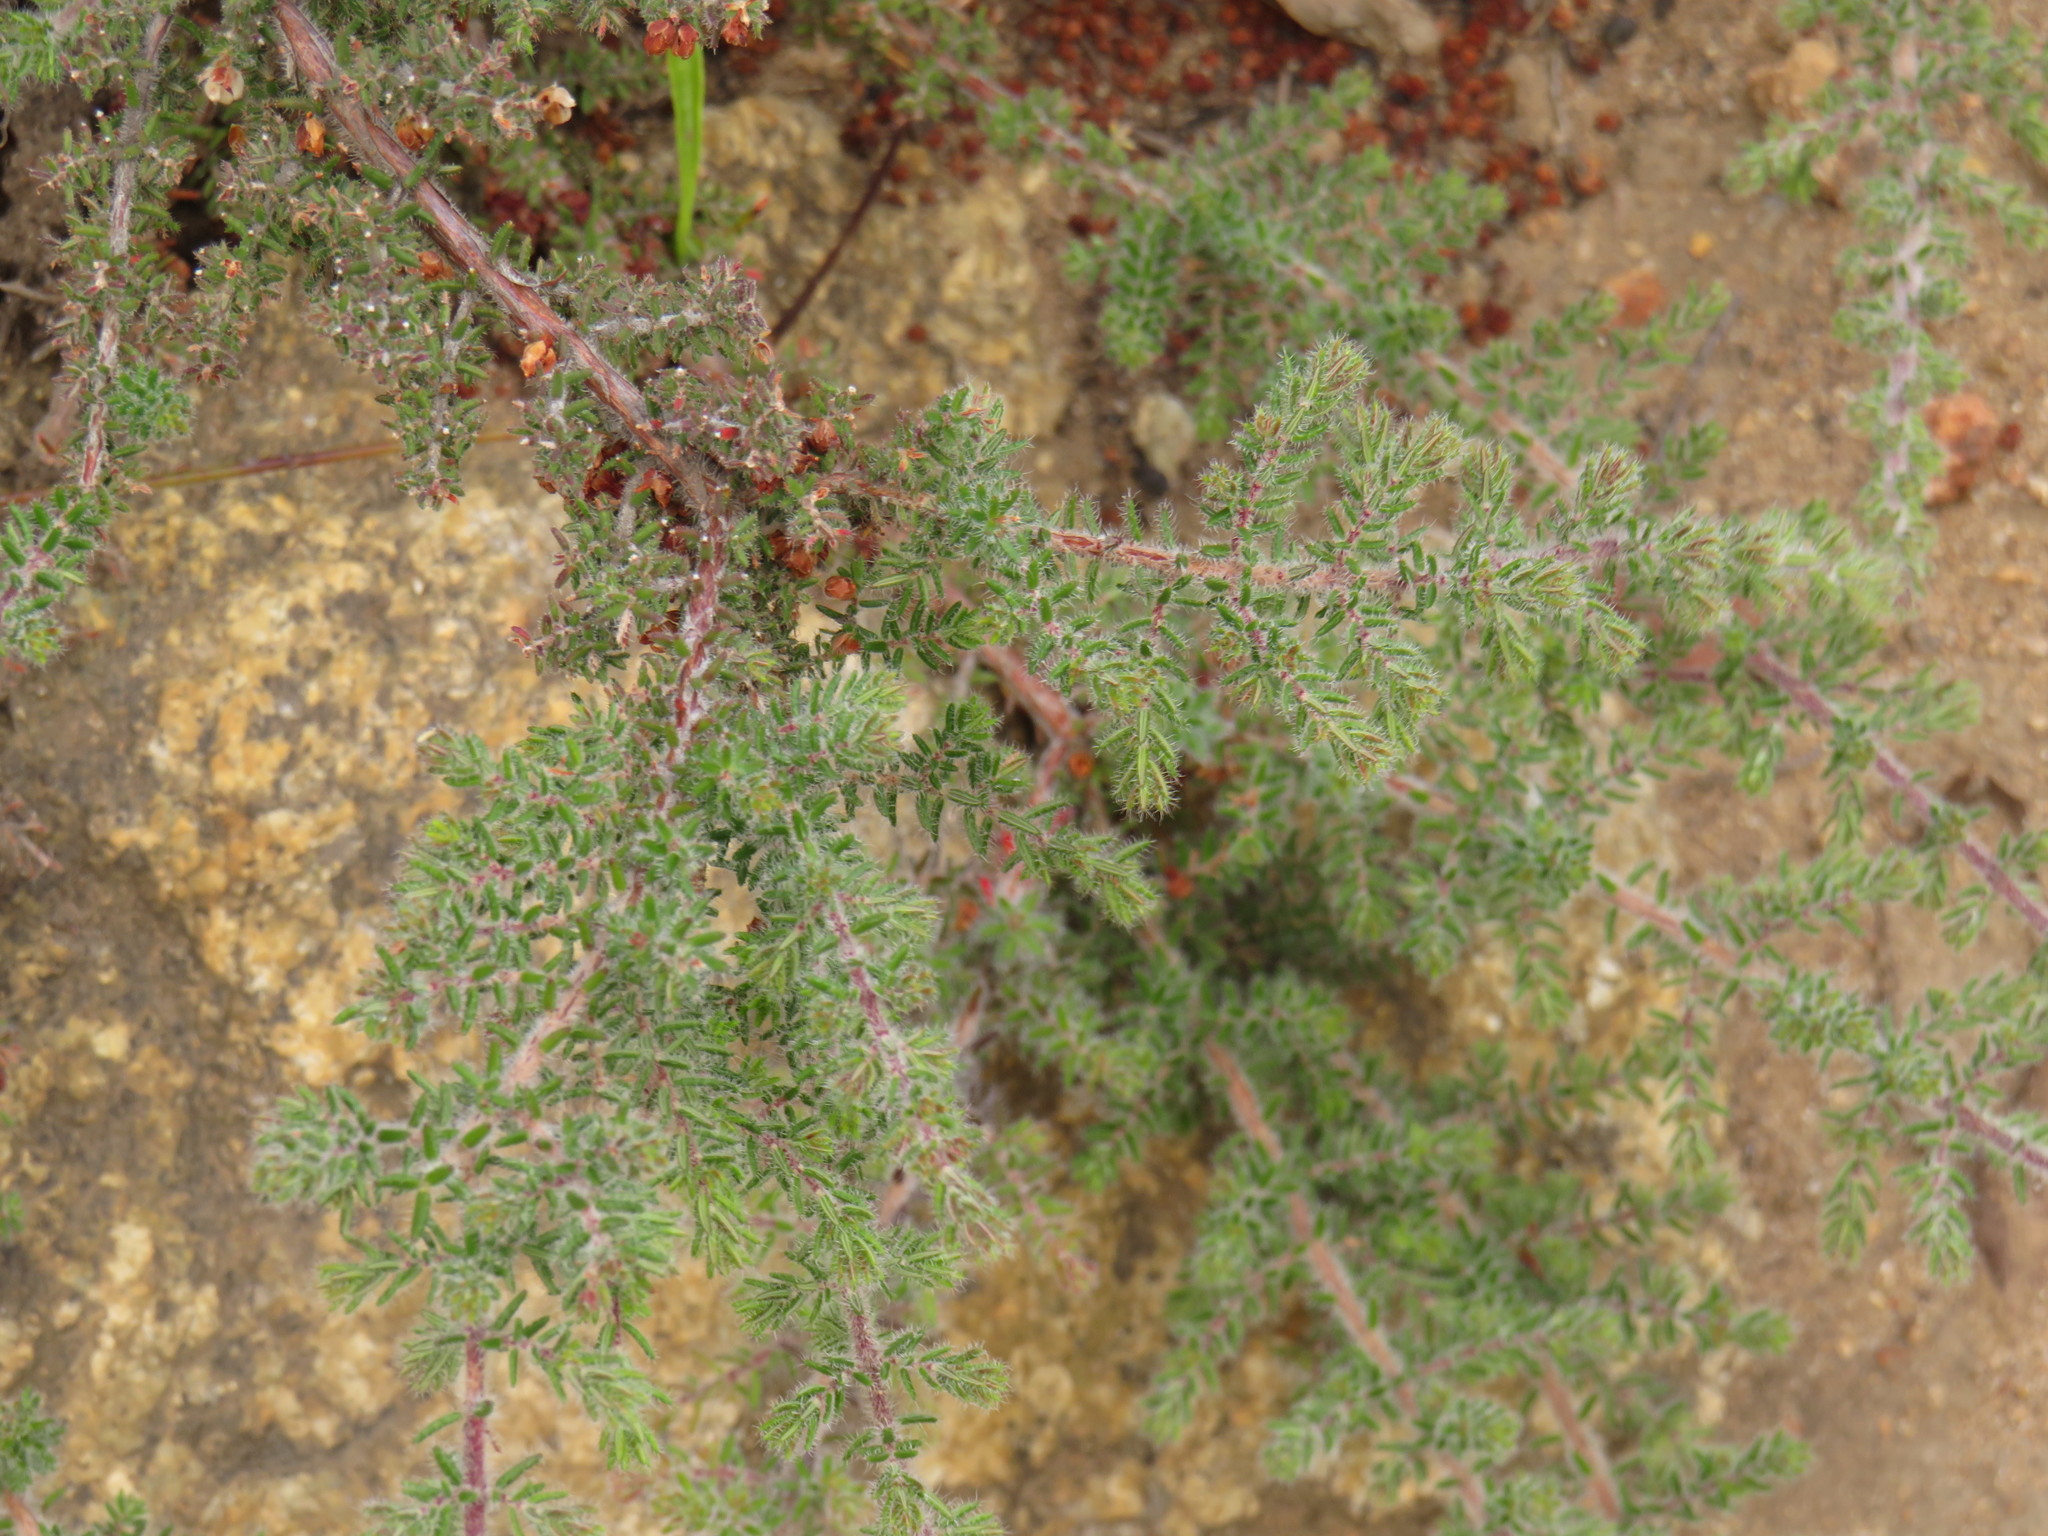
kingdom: Plantae
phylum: Tracheophyta
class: Magnoliopsida
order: Ericales
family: Ericaceae
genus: Erica
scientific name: Erica totta
